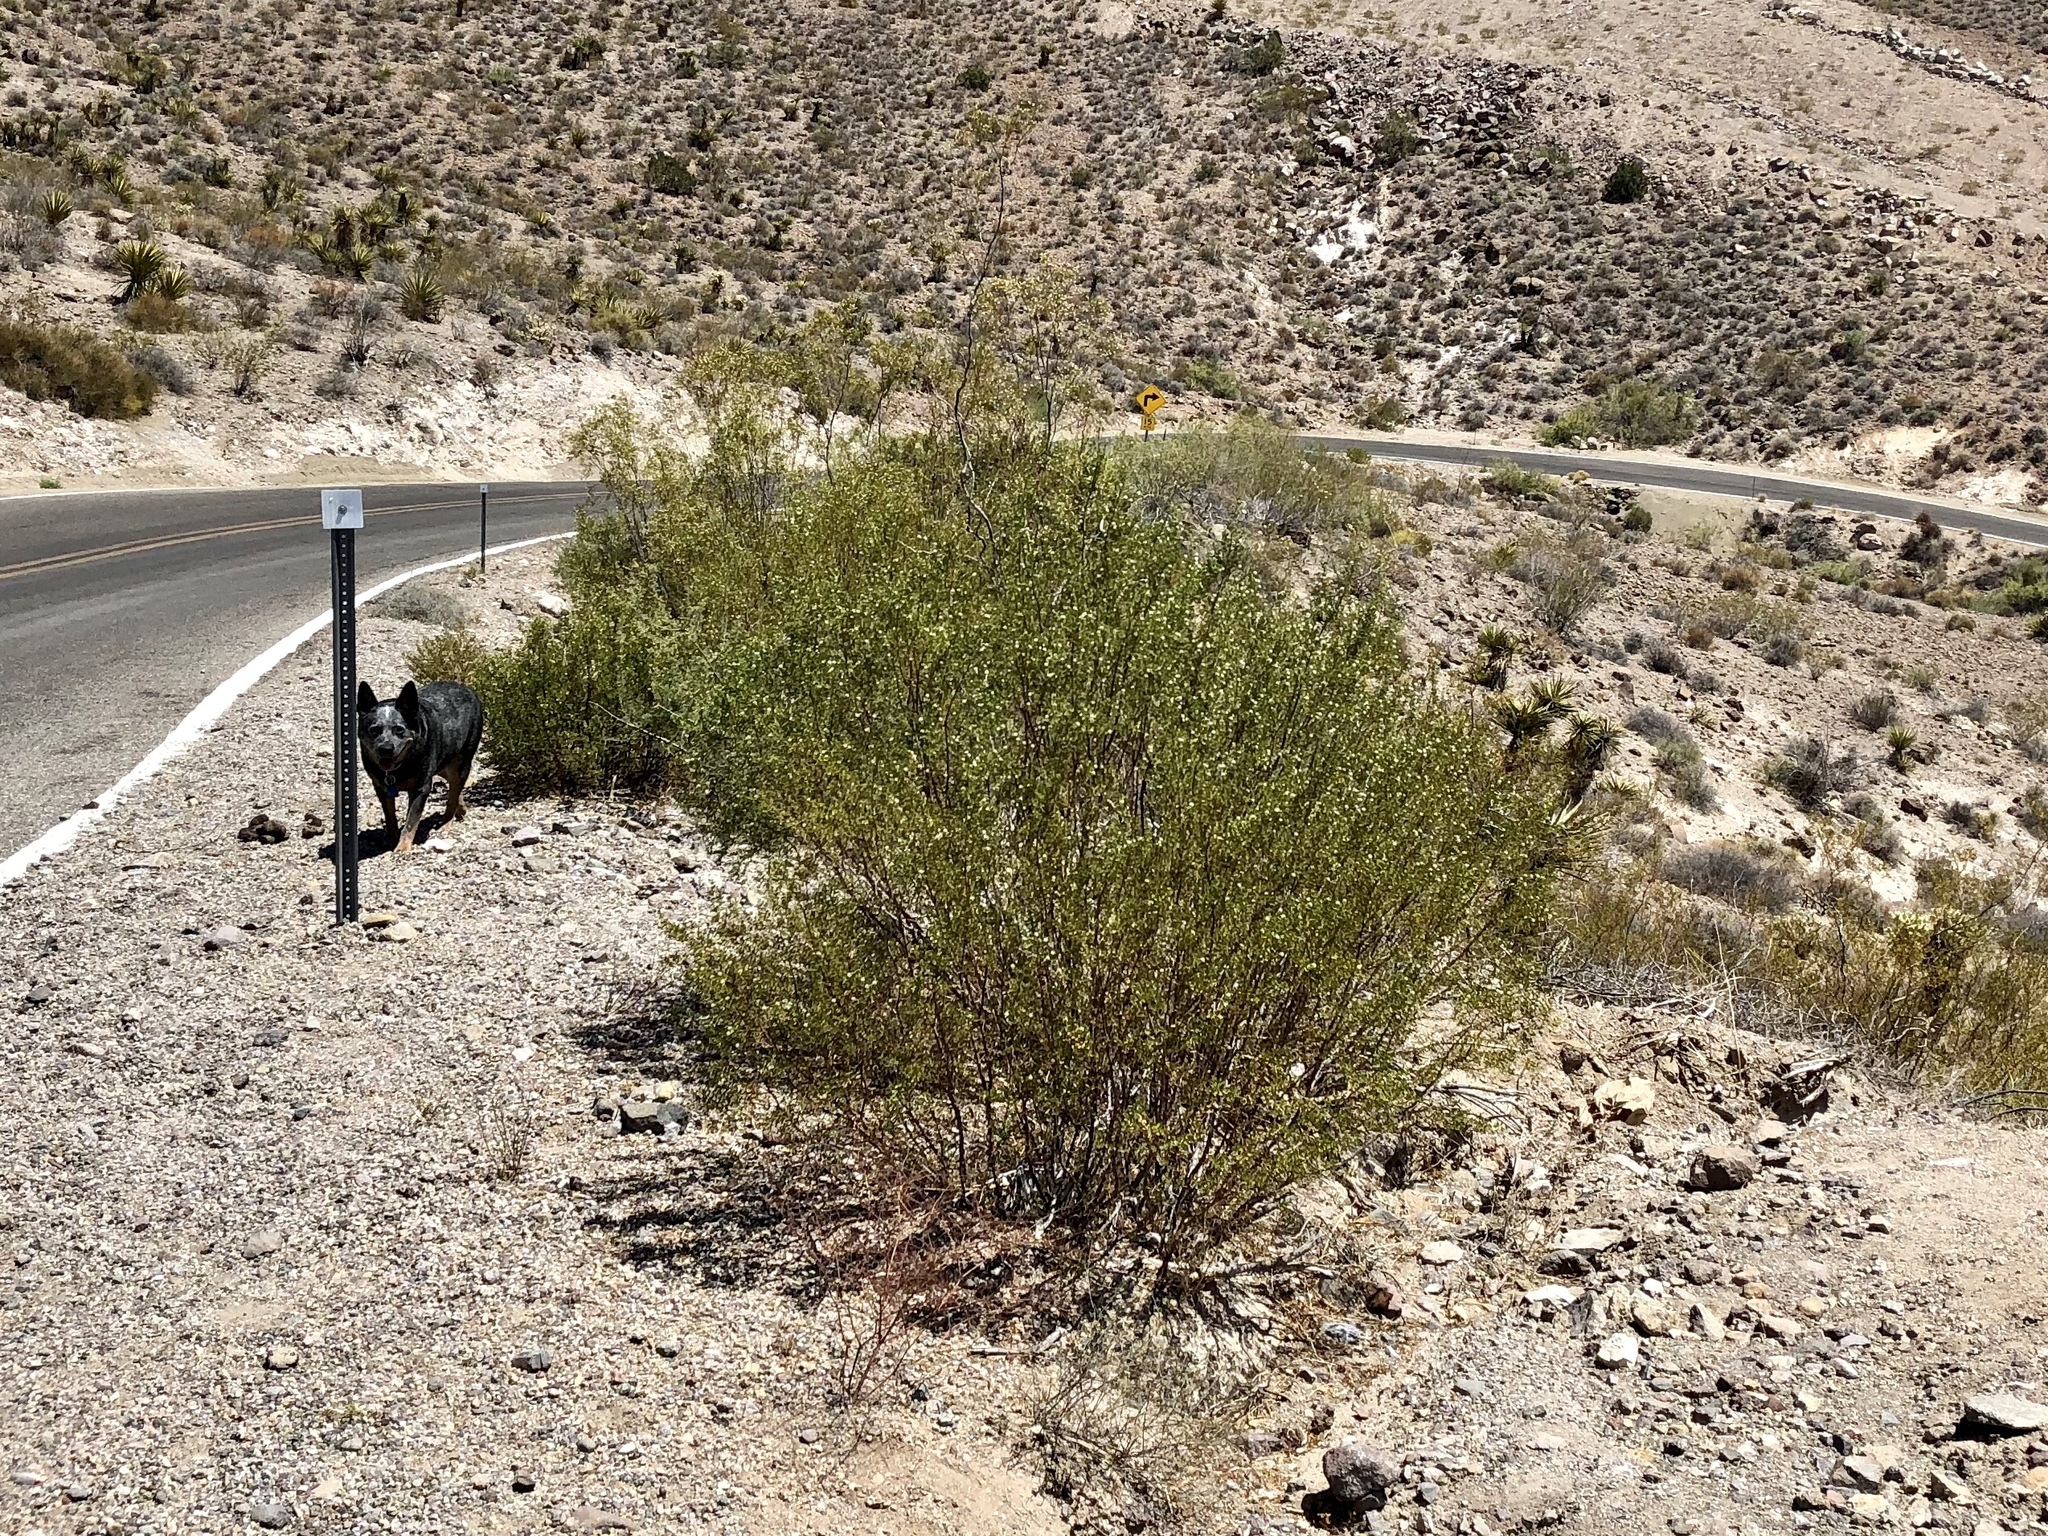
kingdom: Plantae
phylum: Tracheophyta
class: Magnoliopsida
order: Zygophyllales
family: Zygophyllaceae
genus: Larrea
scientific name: Larrea tridentata
